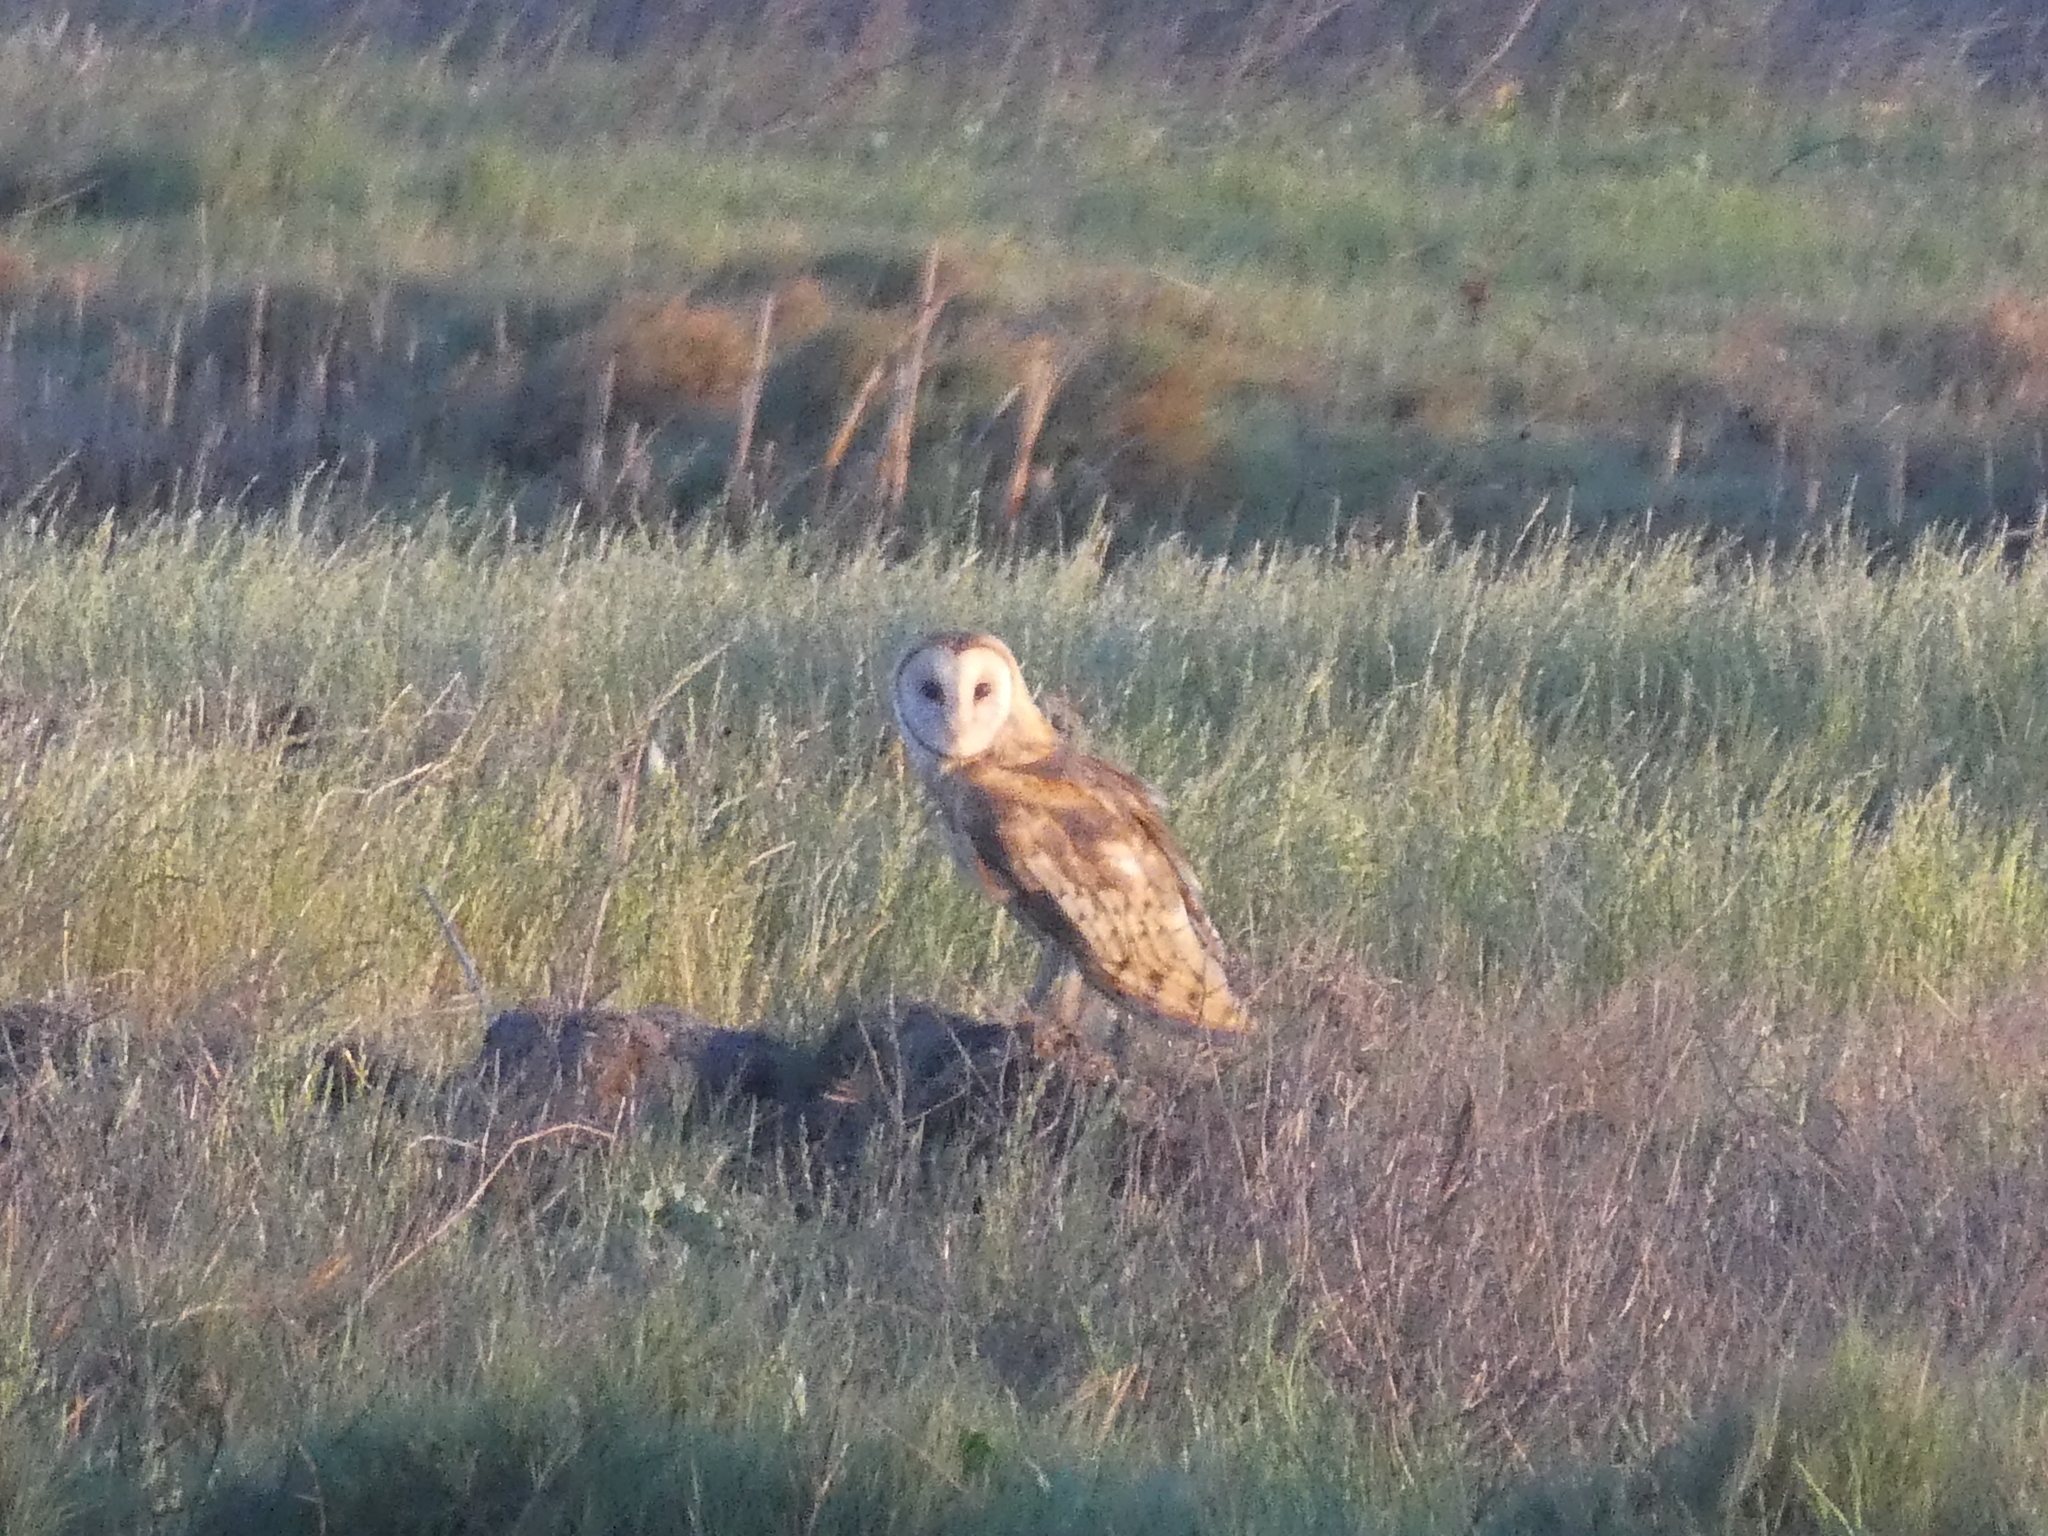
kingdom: Animalia
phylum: Chordata
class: Aves
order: Strigiformes
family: Tytonidae
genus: Tyto
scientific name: Tyto alba
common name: Barn owl
